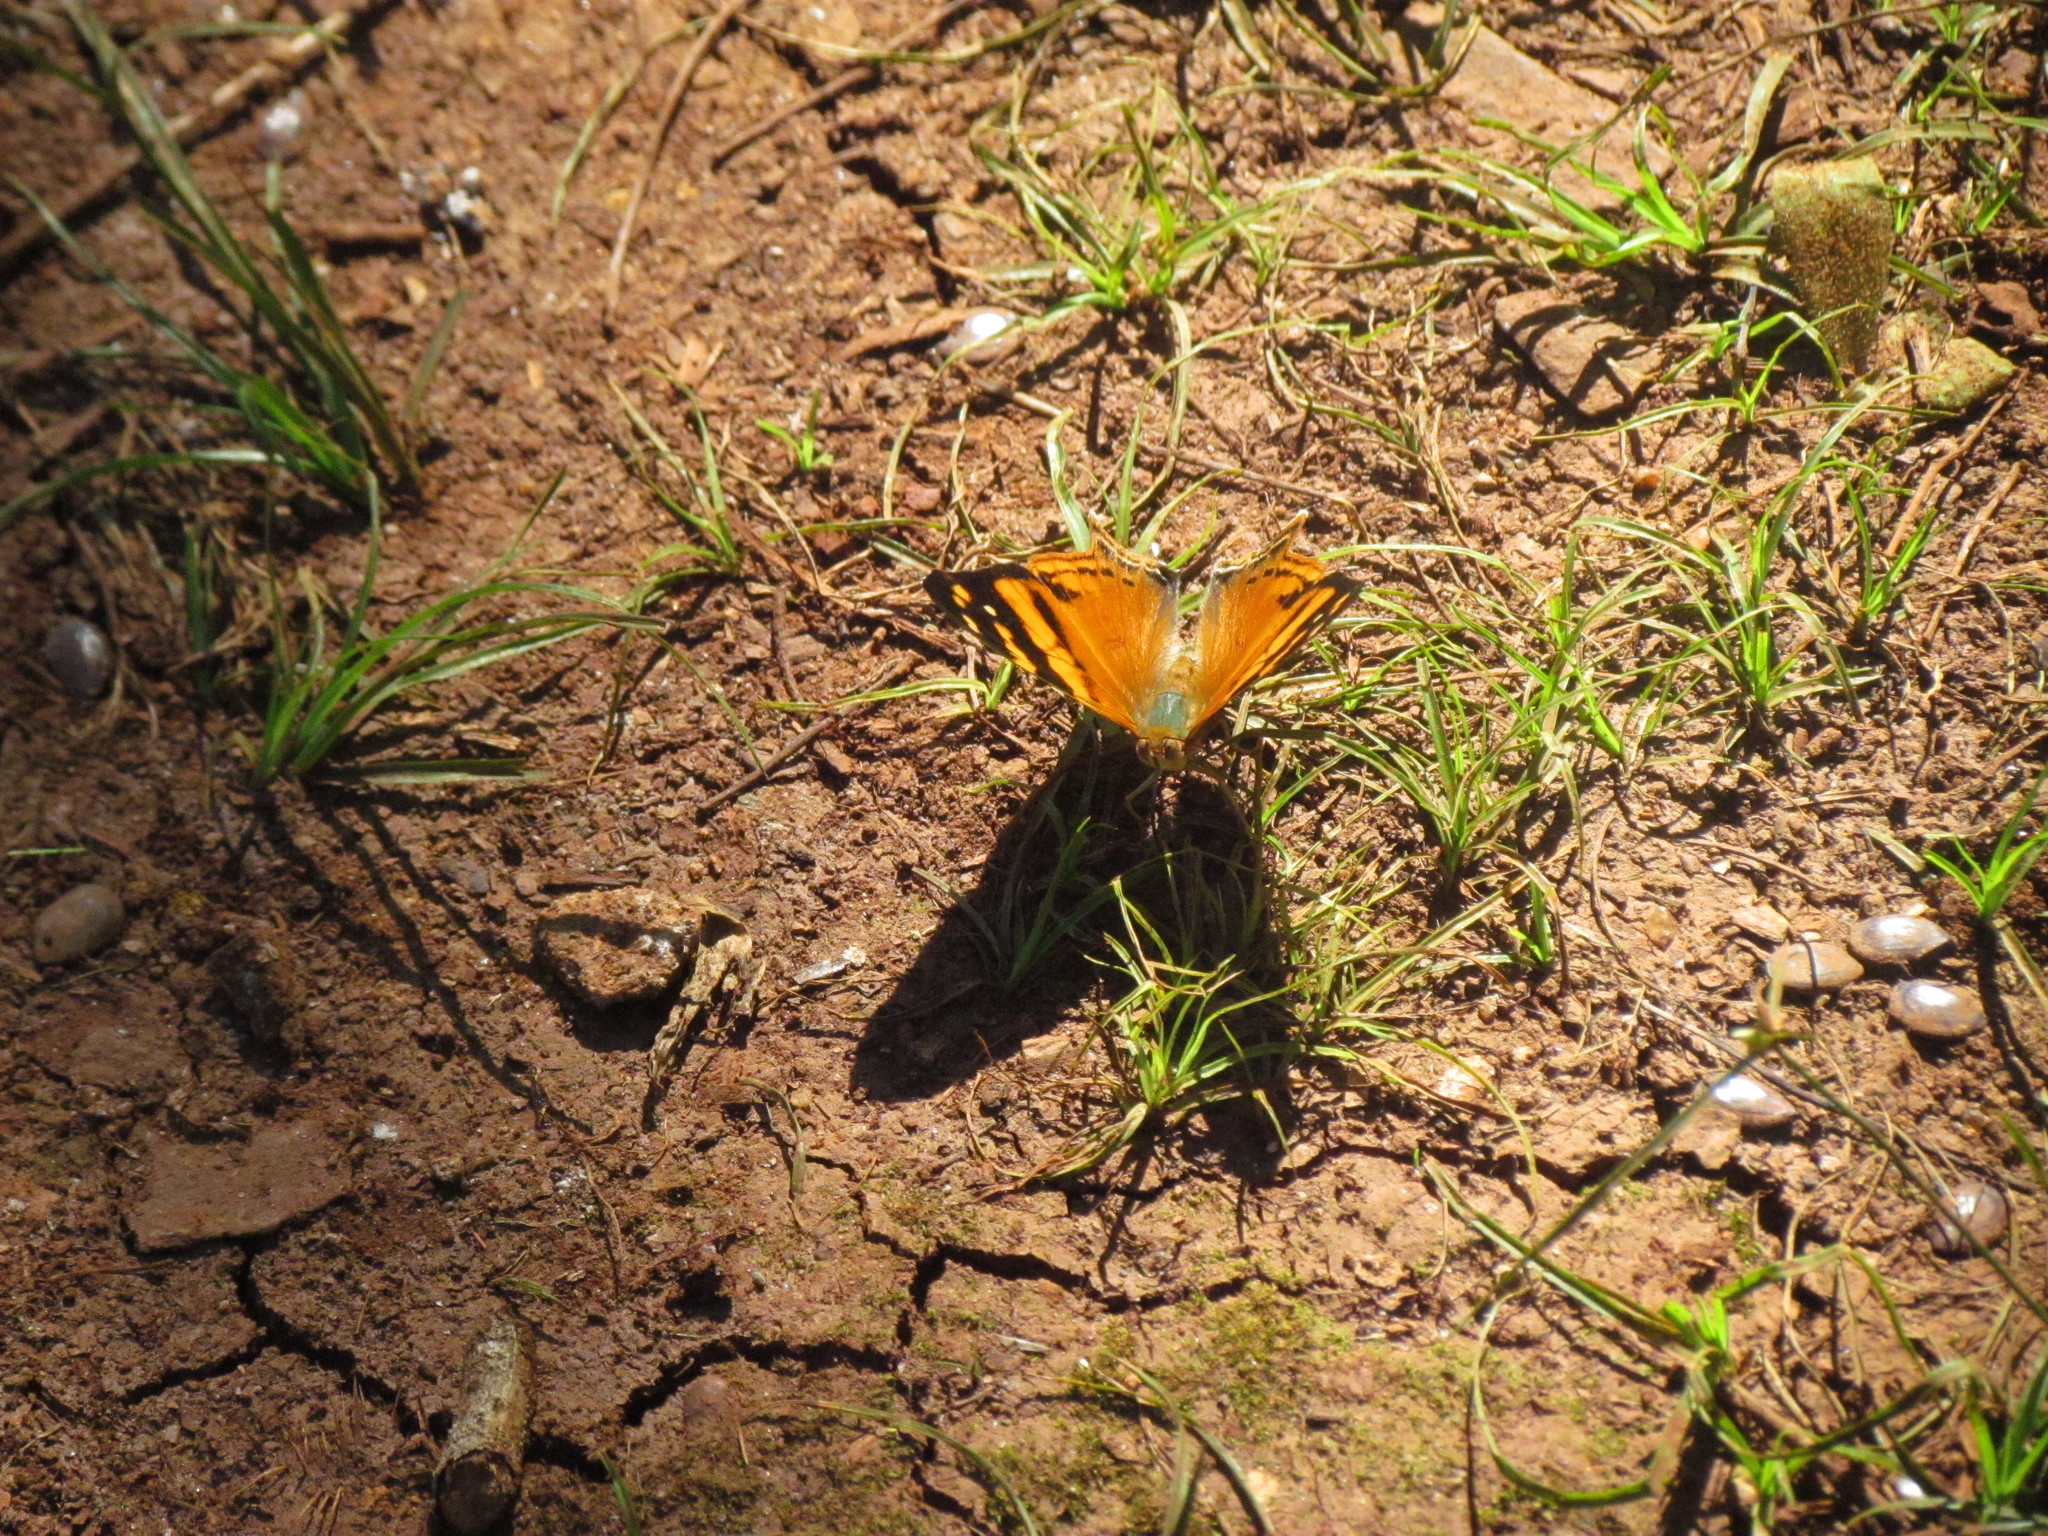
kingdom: Animalia
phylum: Arthropoda
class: Insecta
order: Lepidoptera
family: Nymphalidae
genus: Hypanartia
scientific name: Hypanartia lethe
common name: Orange mapwing
